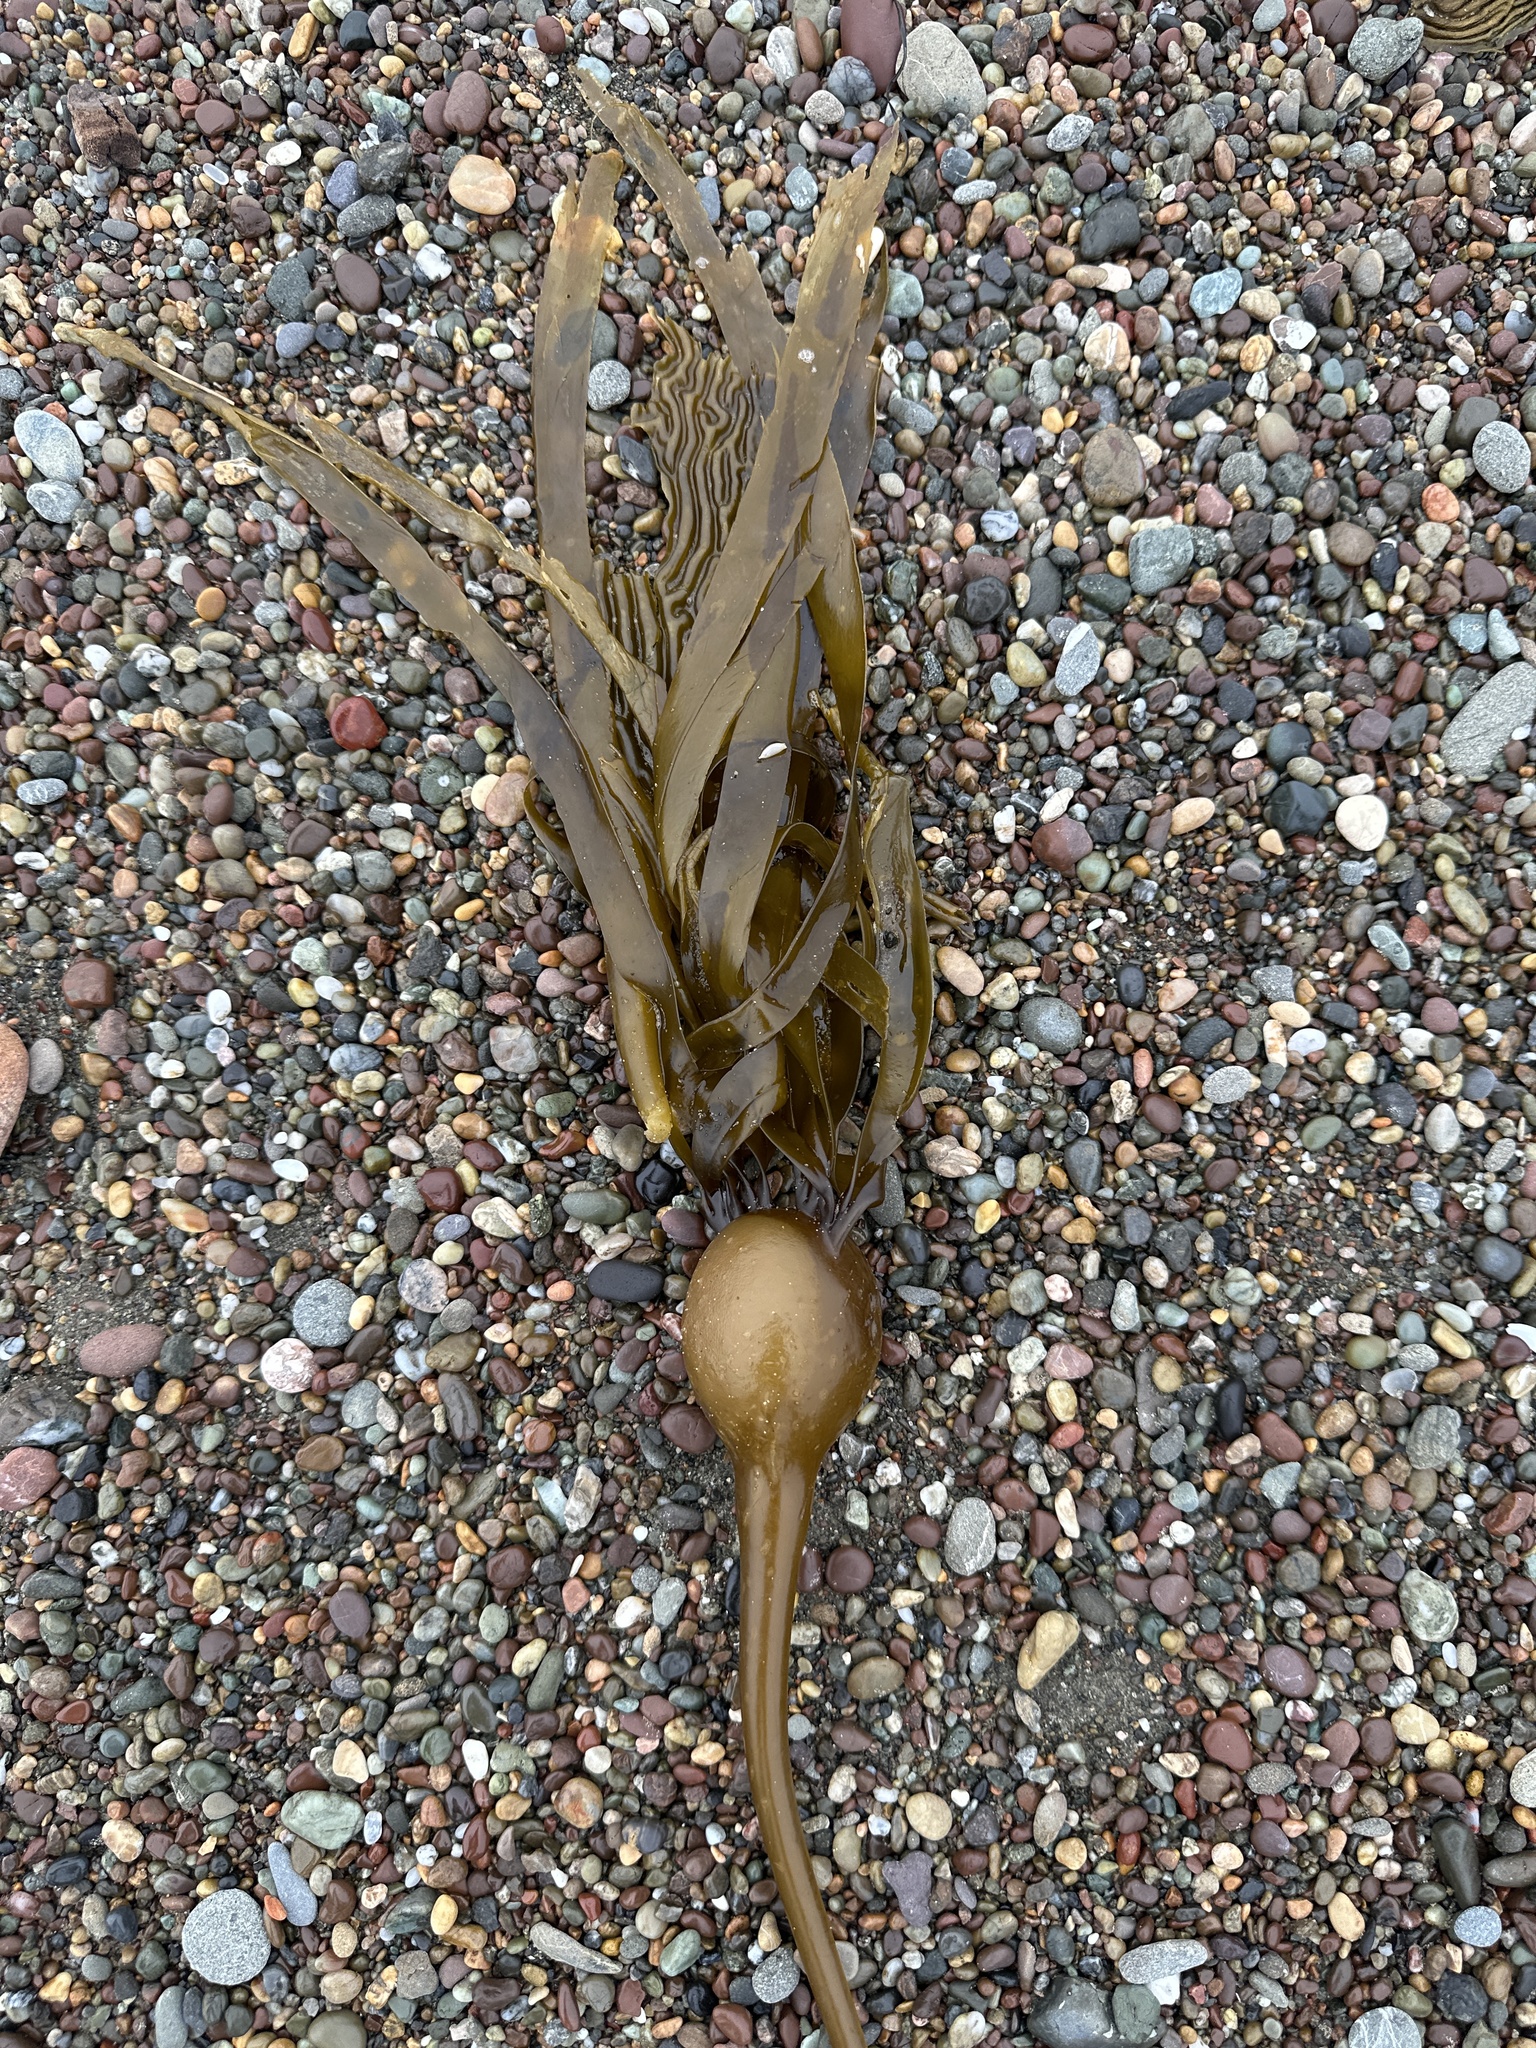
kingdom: Chromista
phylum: Ochrophyta
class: Phaeophyceae
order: Laminariales
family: Laminariaceae
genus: Nereocystis
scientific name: Nereocystis luetkeana
